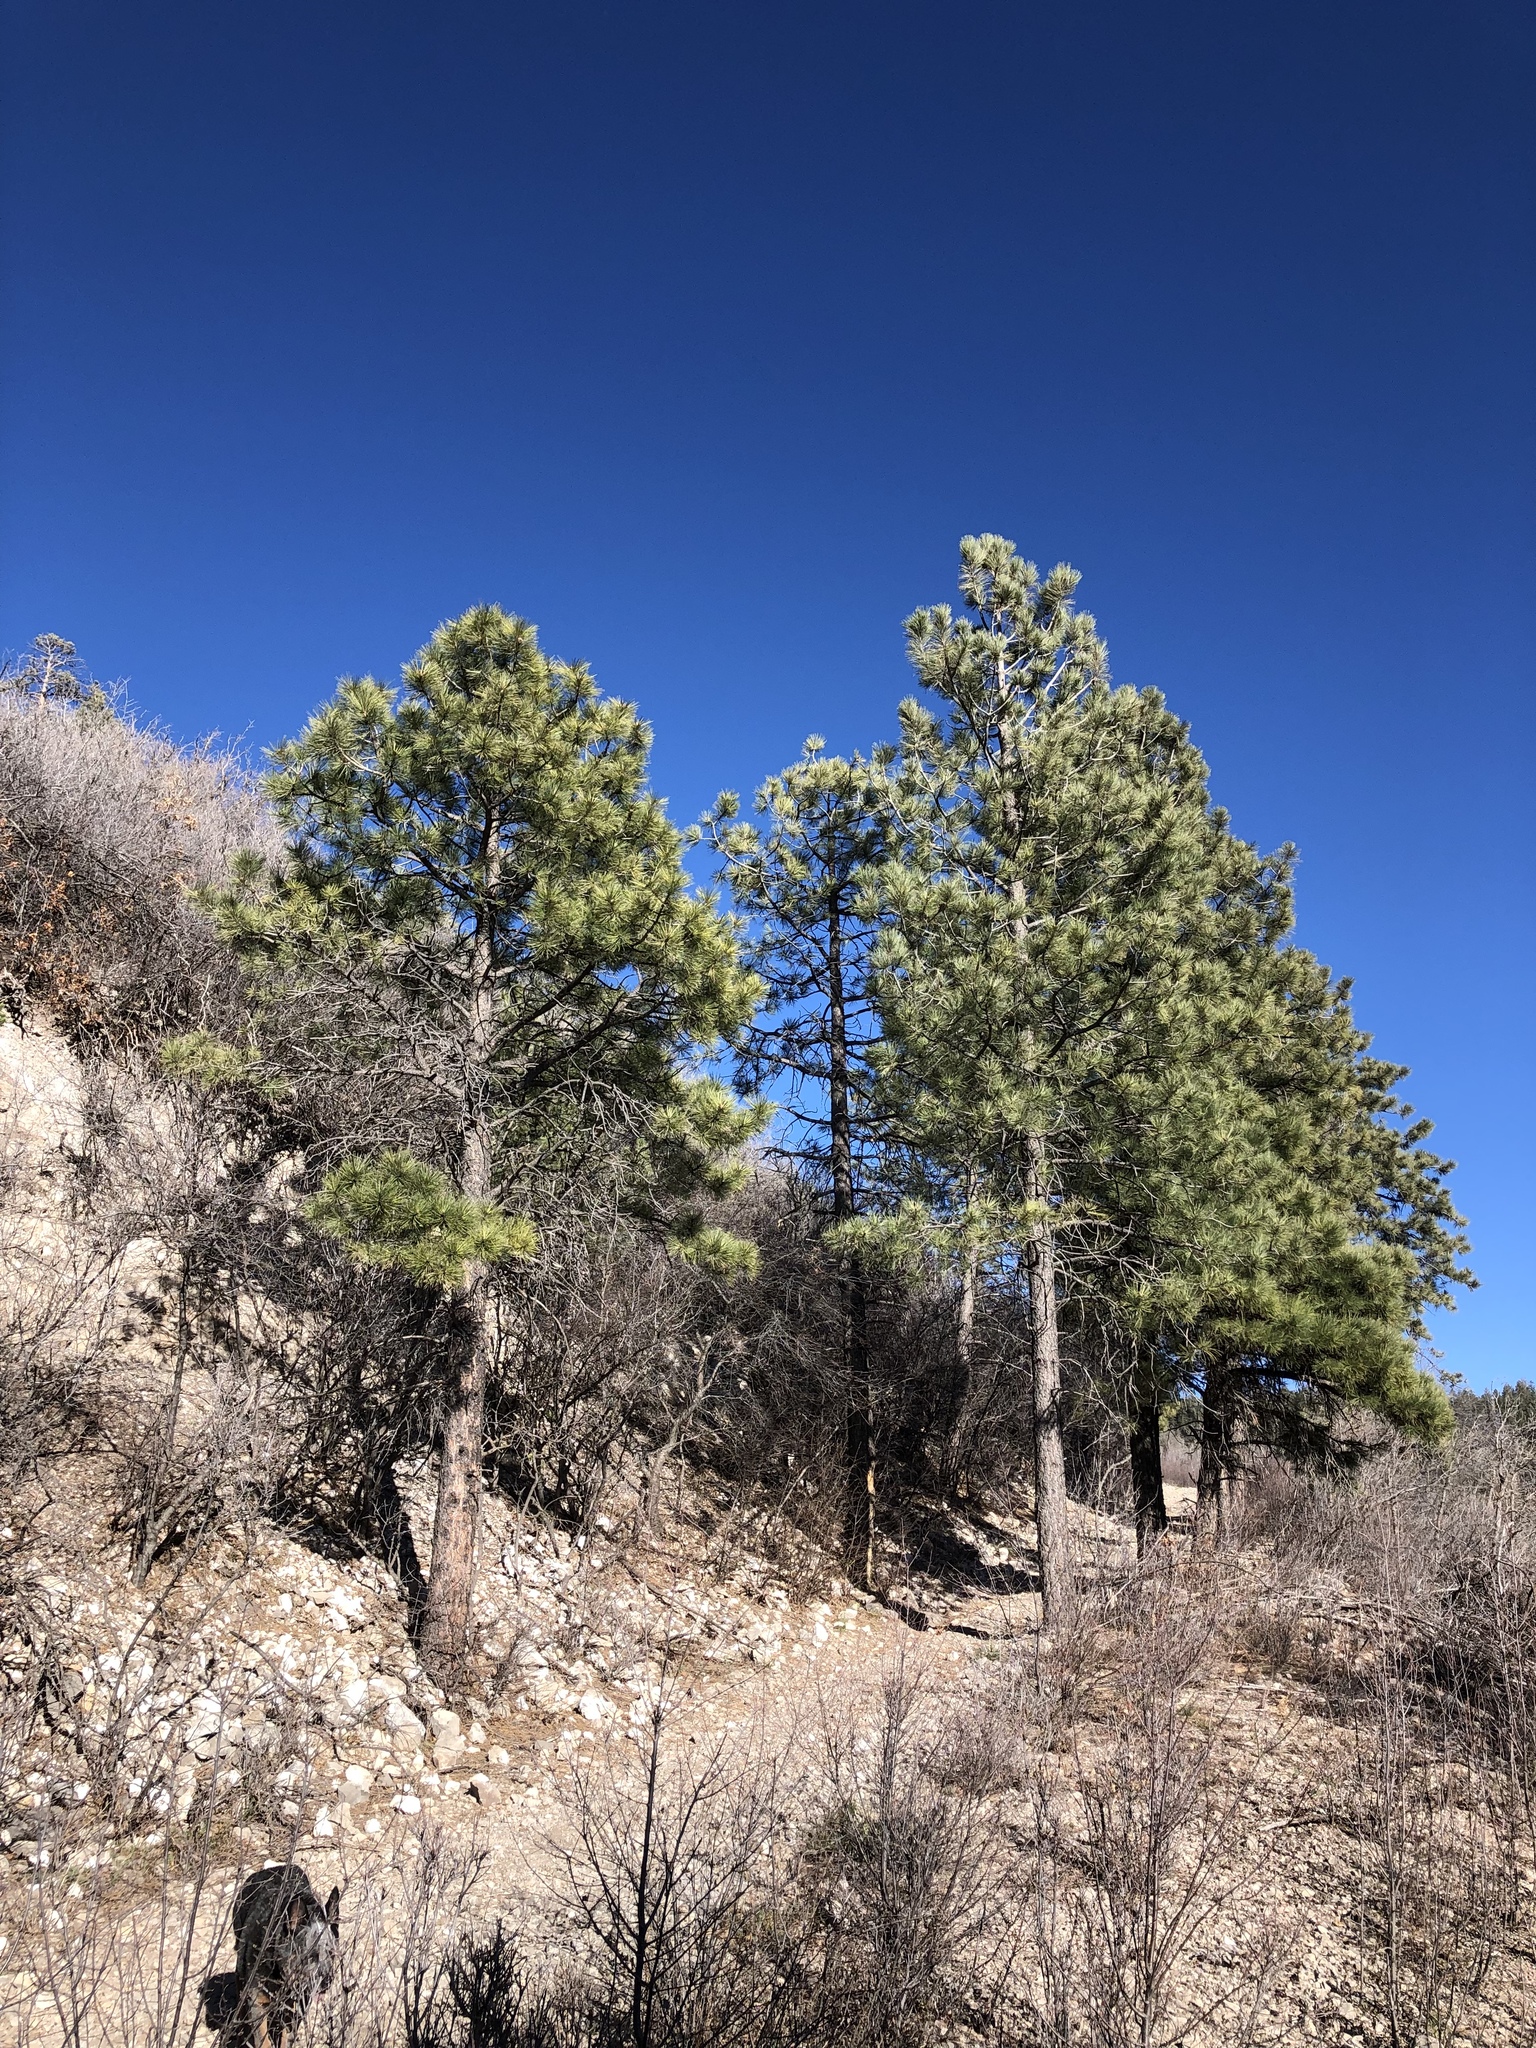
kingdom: Plantae
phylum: Tracheophyta
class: Pinopsida
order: Pinales
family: Pinaceae
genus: Pinus
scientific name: Pinus ponderosa
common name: Western yellow-pine
